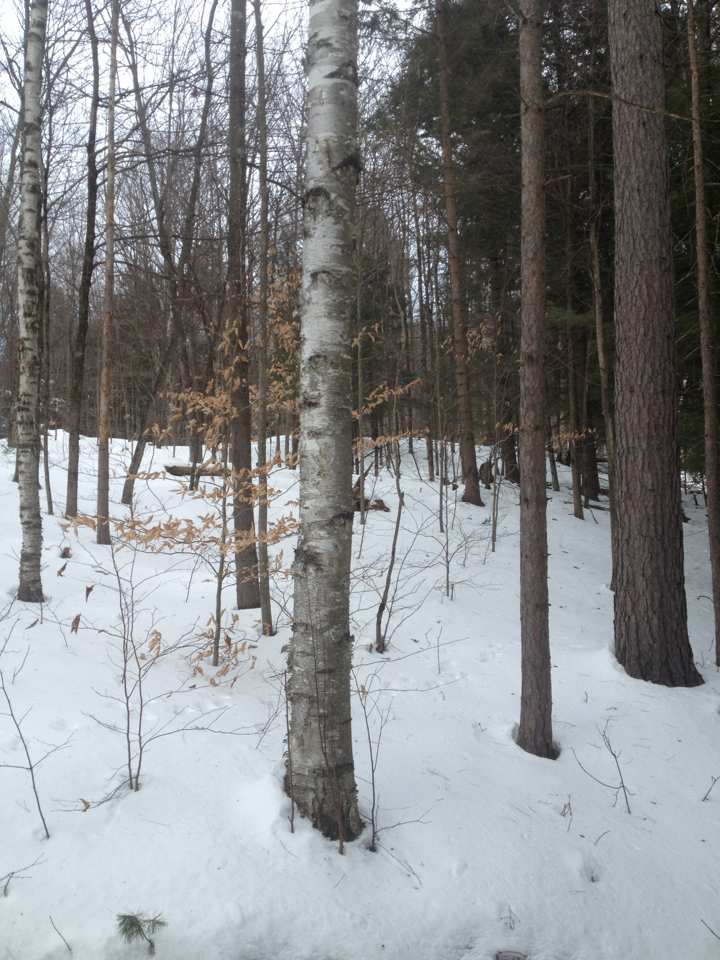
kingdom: Plantae
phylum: Tracheophyta
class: Magnoliopsida
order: Fagales
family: Betulaceae
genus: Betula
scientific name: Betula papyrifera
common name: Paper birch
